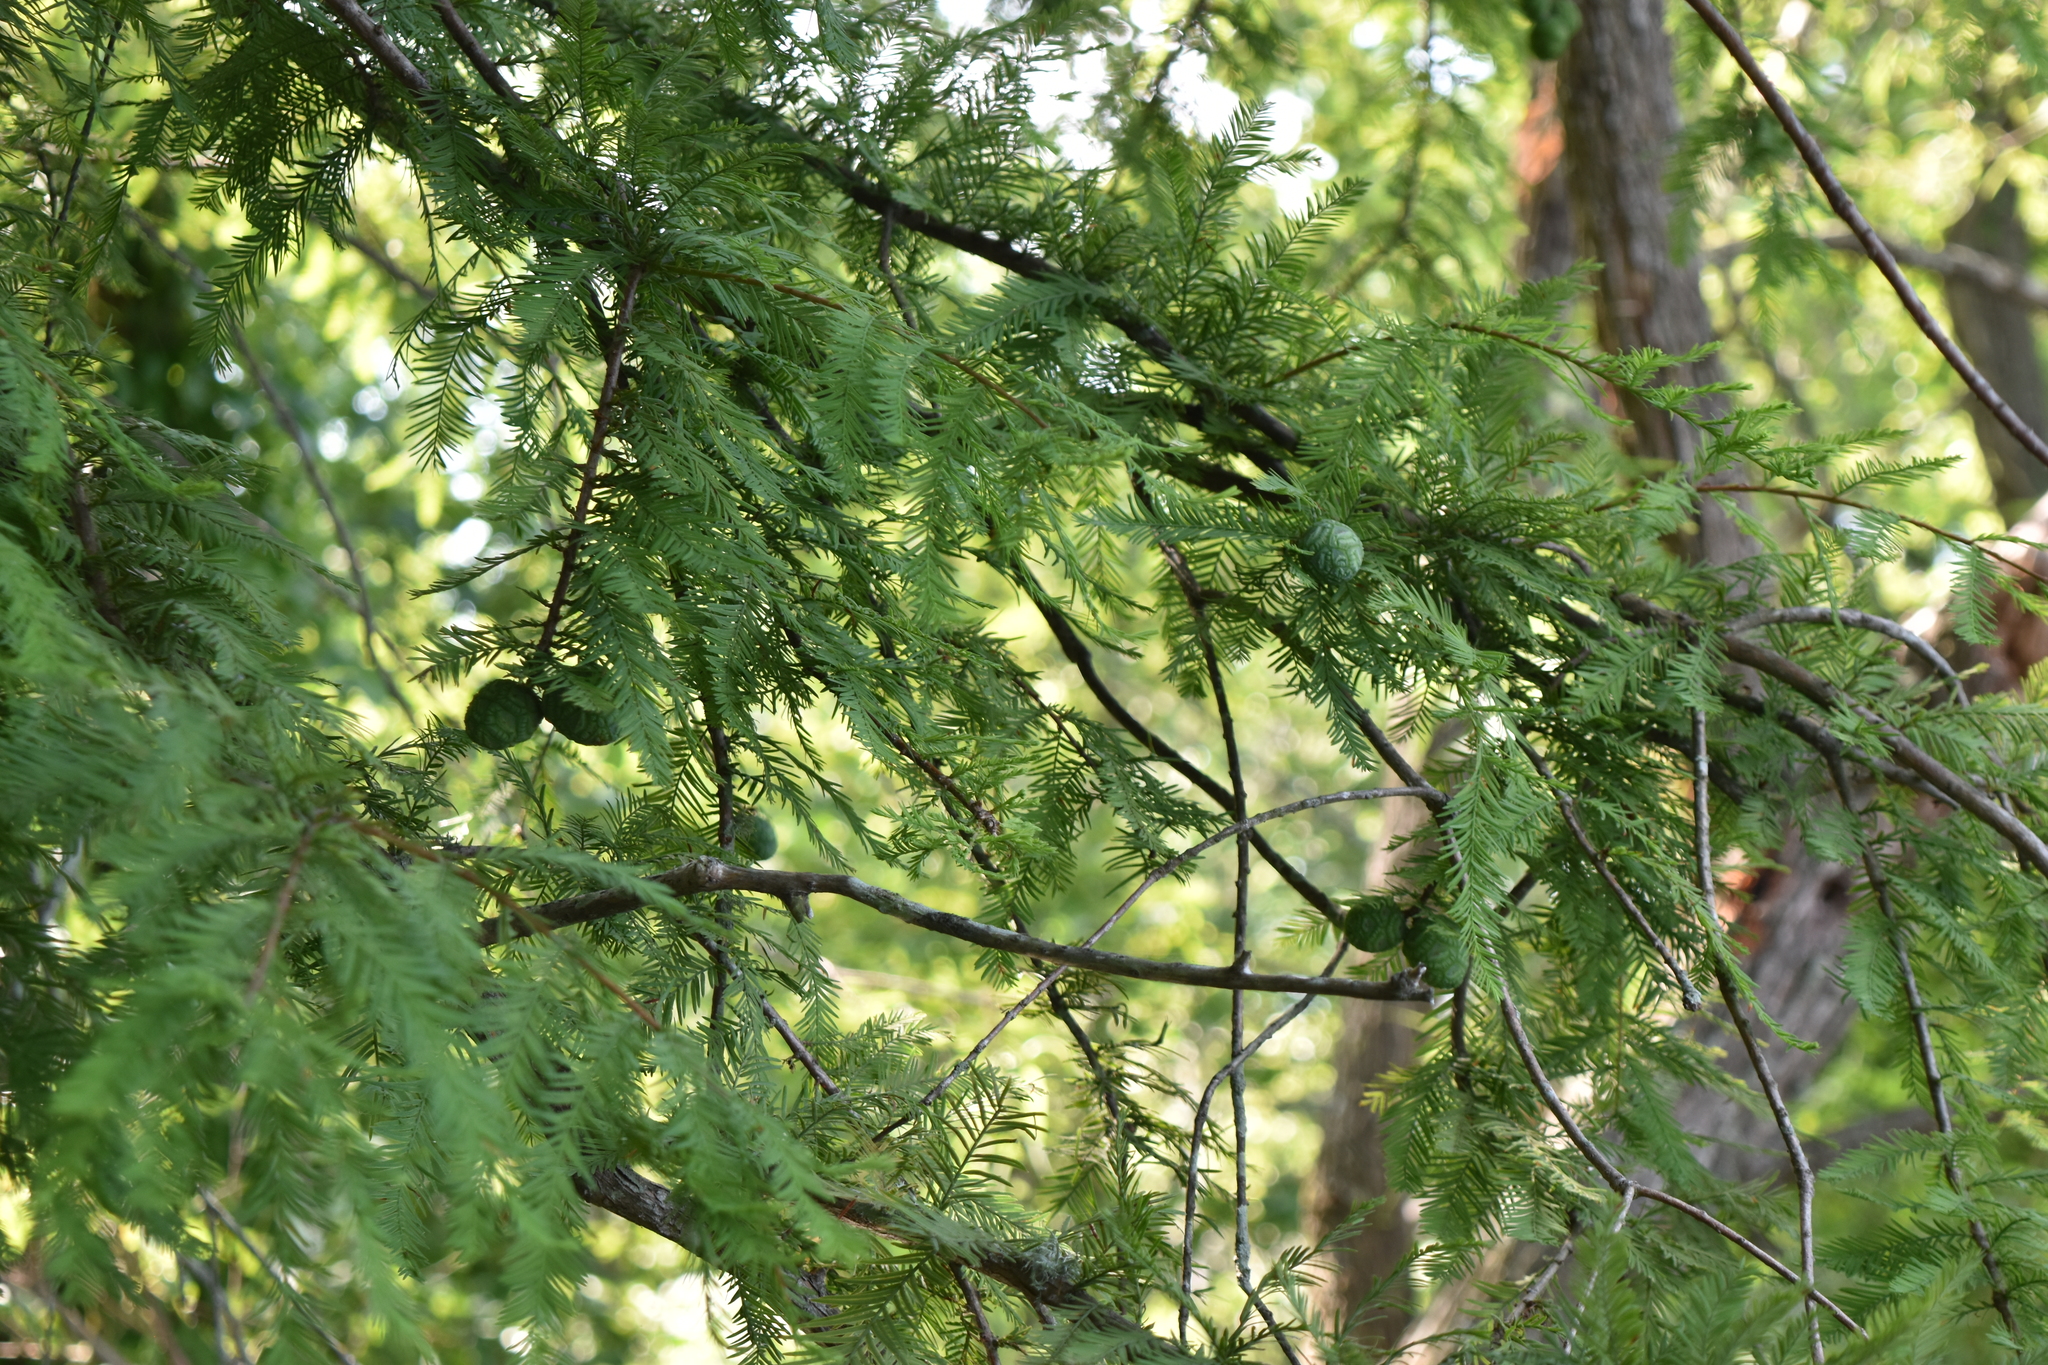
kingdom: Plantae
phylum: Tracheophyta
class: Pinopsida
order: Pinales
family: Cupressaceae
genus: Taxodium
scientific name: Taxodium distichum
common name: Bald cypress
